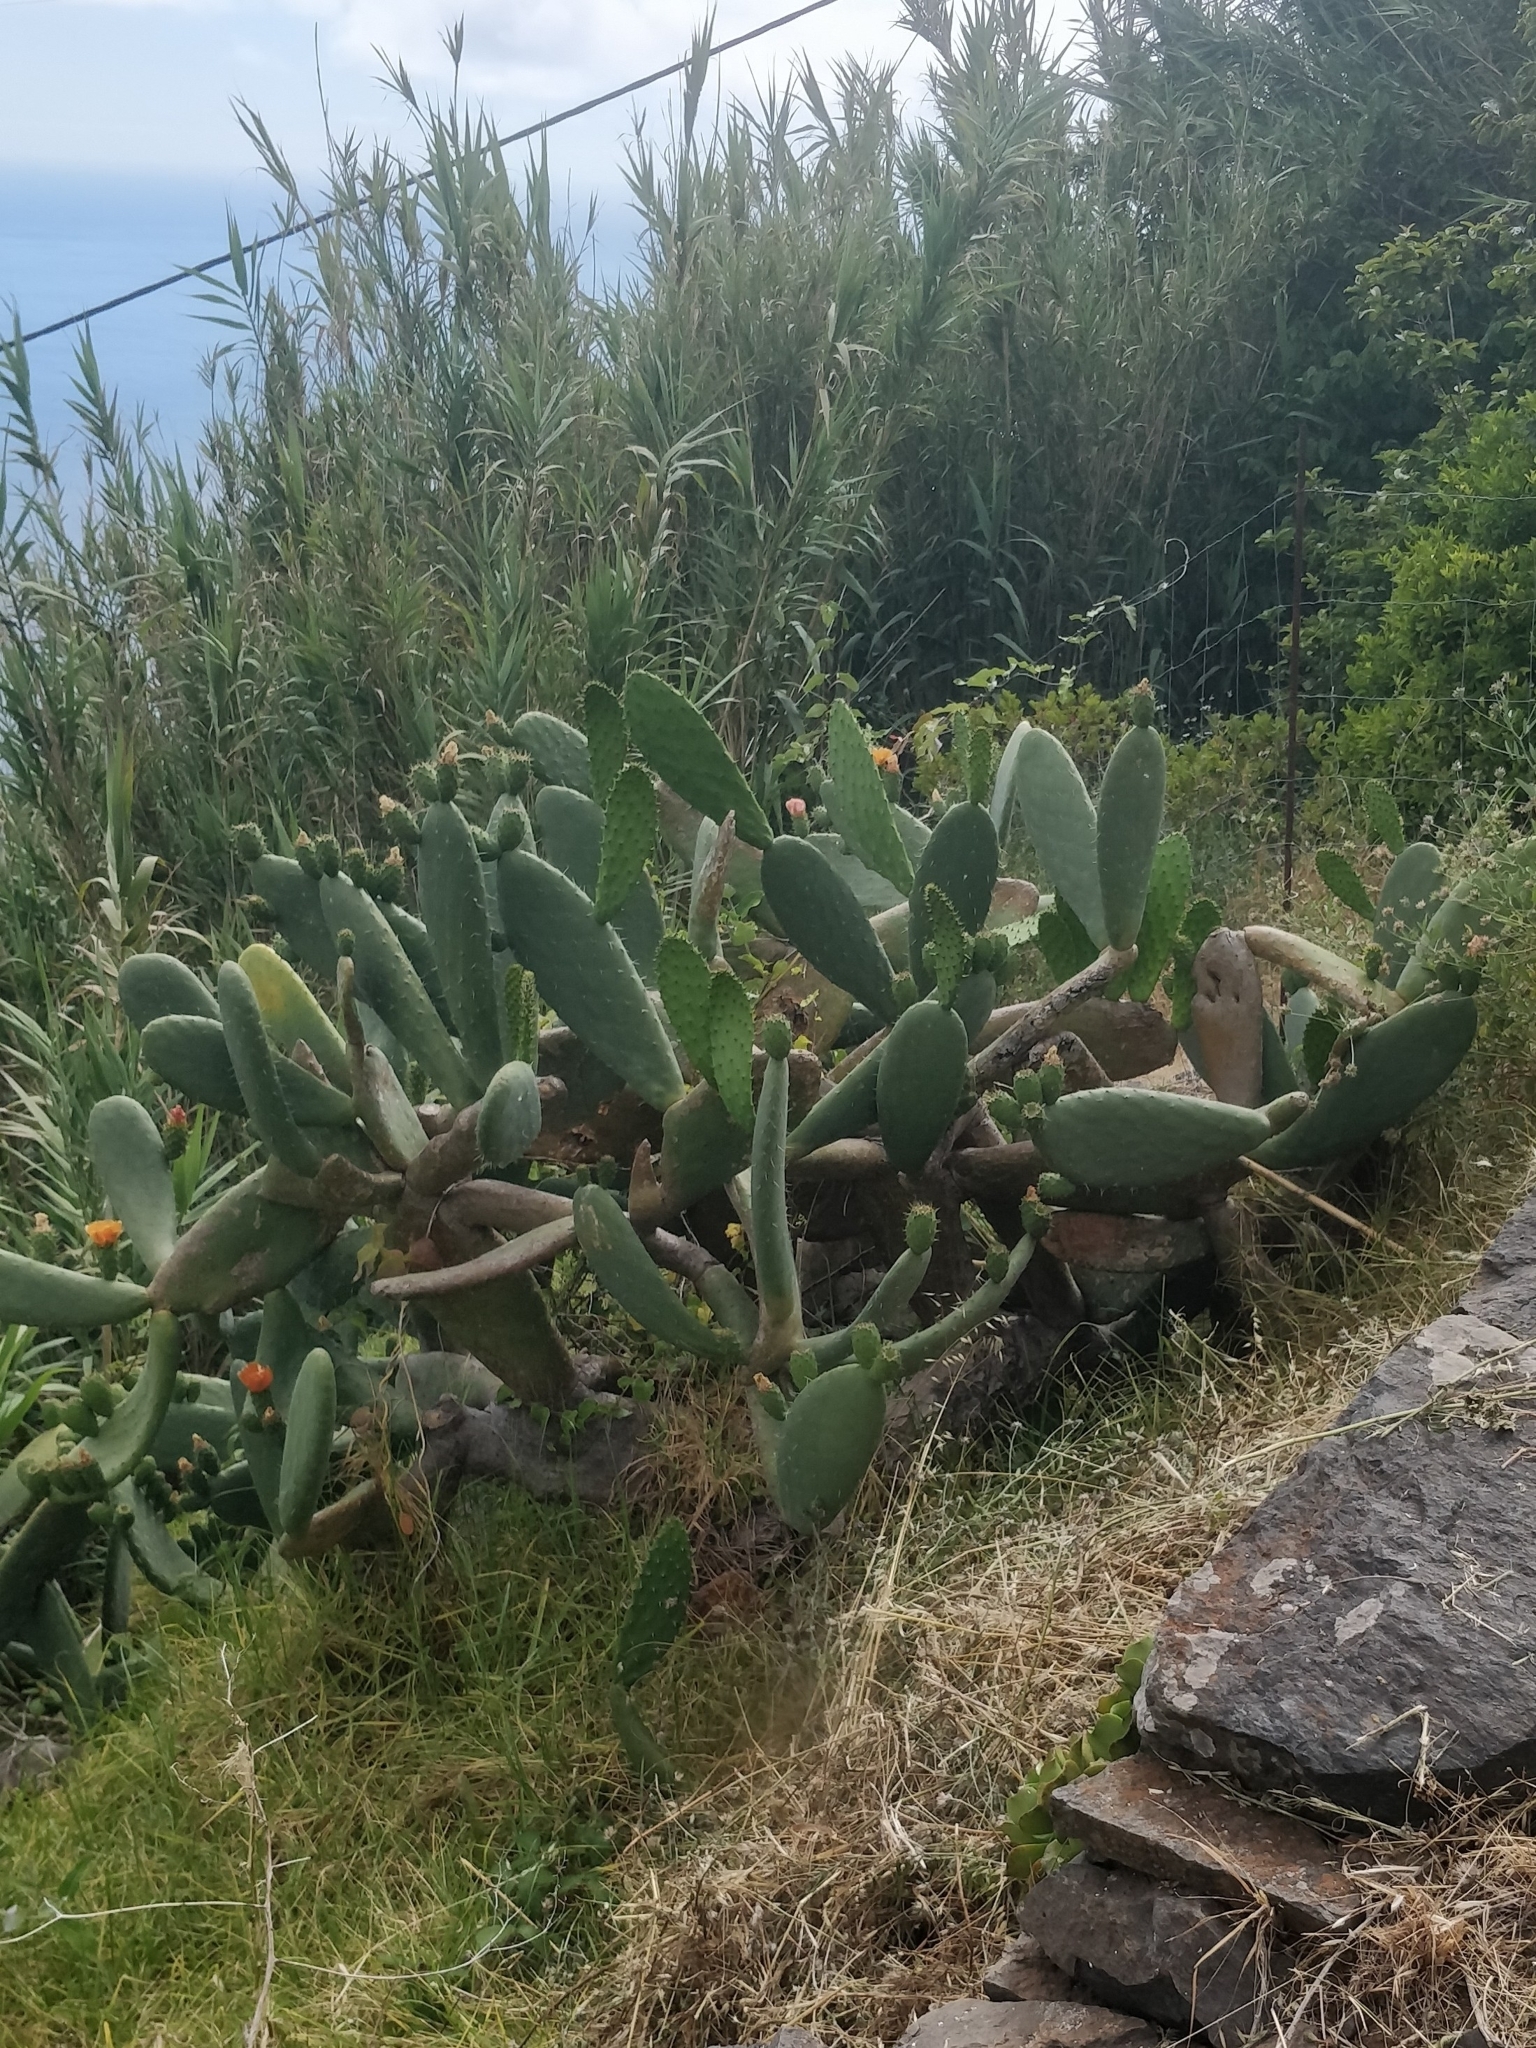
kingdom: Plantae
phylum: Tracheophyta
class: Magnoliopsida
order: Caryophyllales
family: Cactaceae
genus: Opuntia
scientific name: Opuntia ficus-indica
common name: Barbary fig
